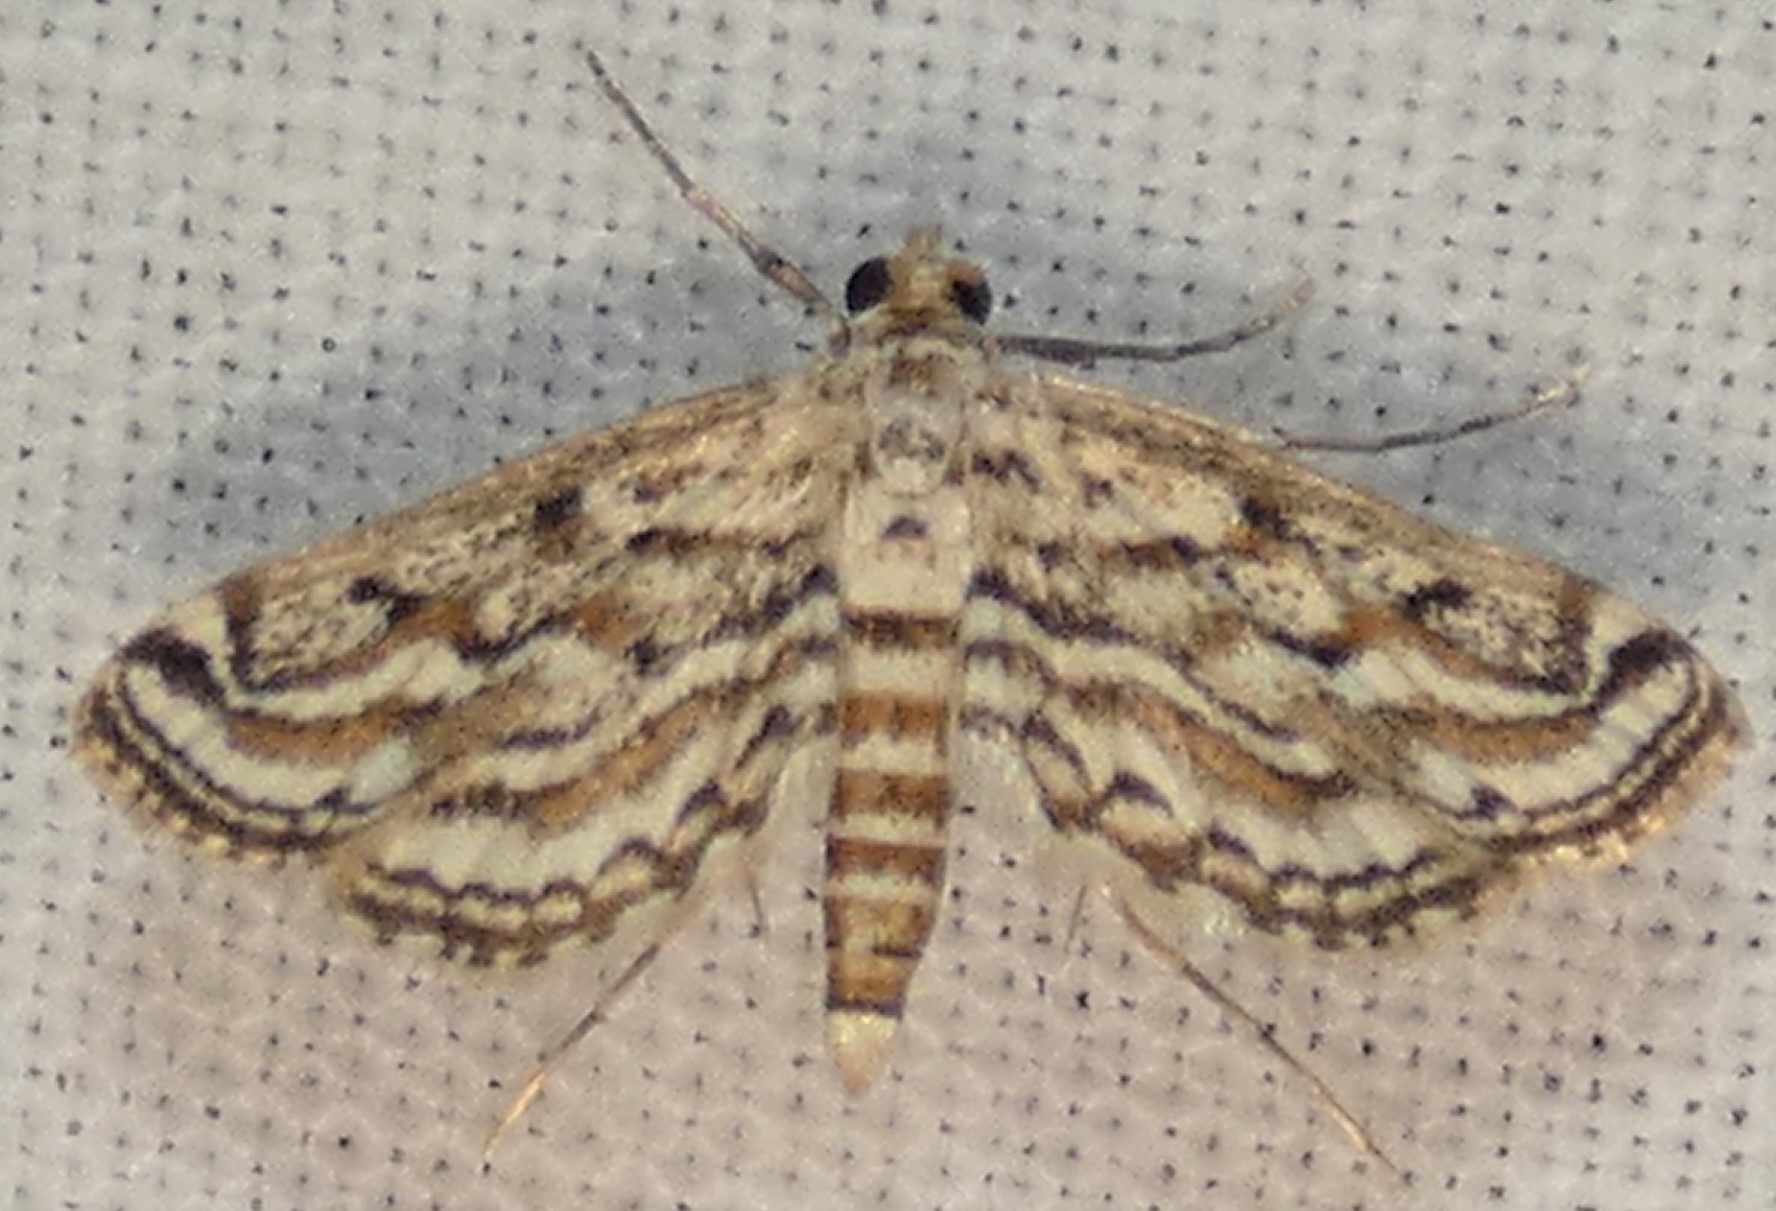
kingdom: Animalia
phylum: Arthropoda
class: Insecta
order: Lepidoptera
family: Crambidae
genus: Parapoynx
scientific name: Parapoynx allionealis
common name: Bladderwort casemaker
